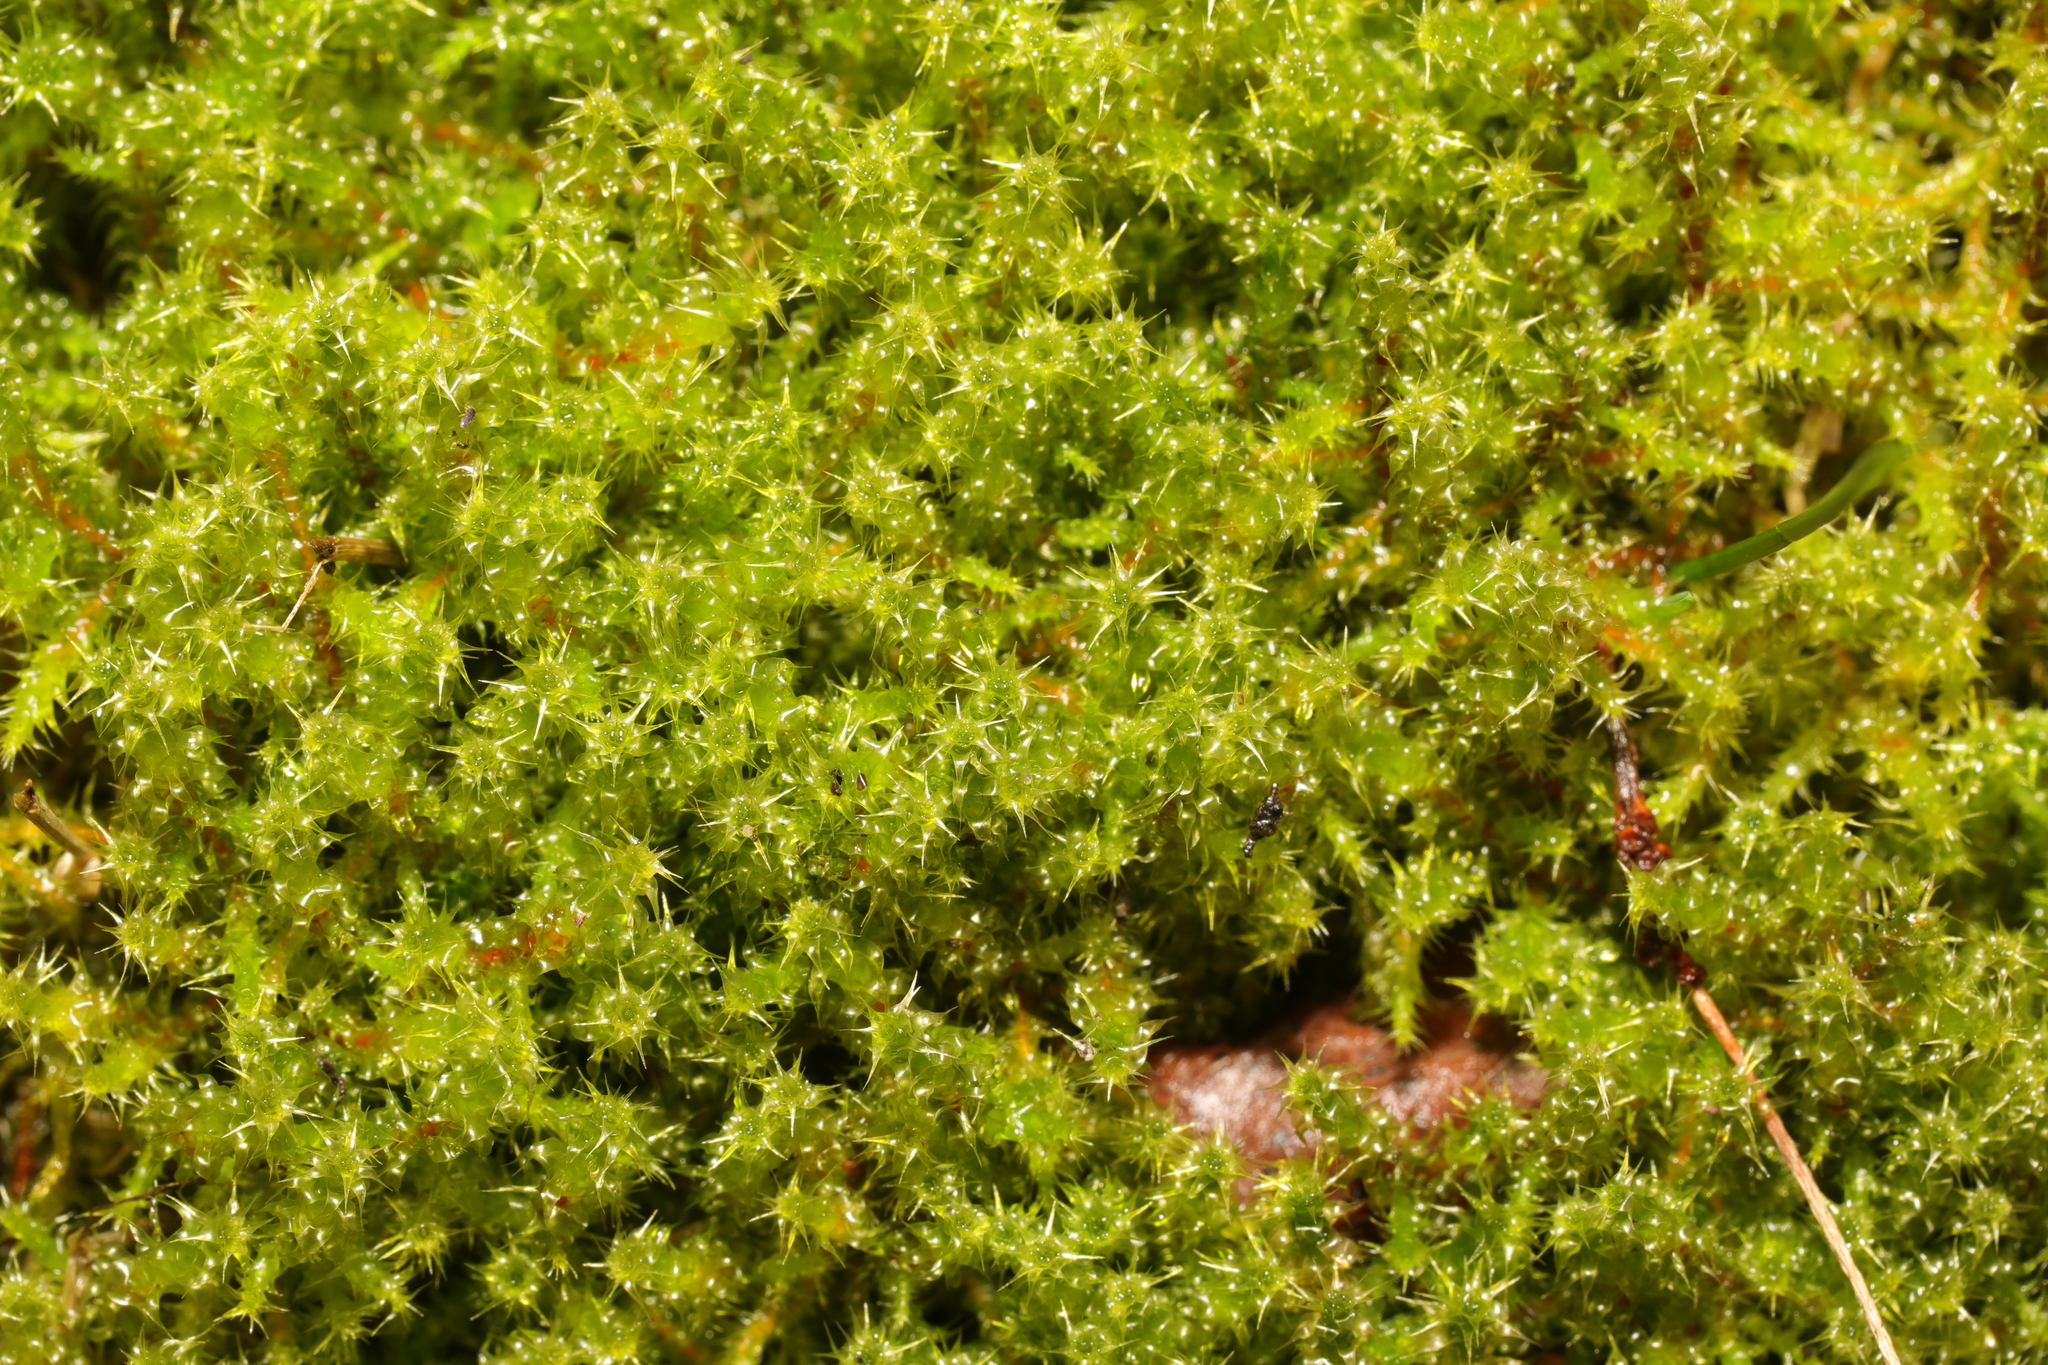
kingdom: Plantae
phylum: Bryophyta
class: Bryopsida
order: Hypnales
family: Hylocomiaceae
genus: Rhytidiadelphus
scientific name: Rhytidiadelphus squarrosus
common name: Springy turf-moss
